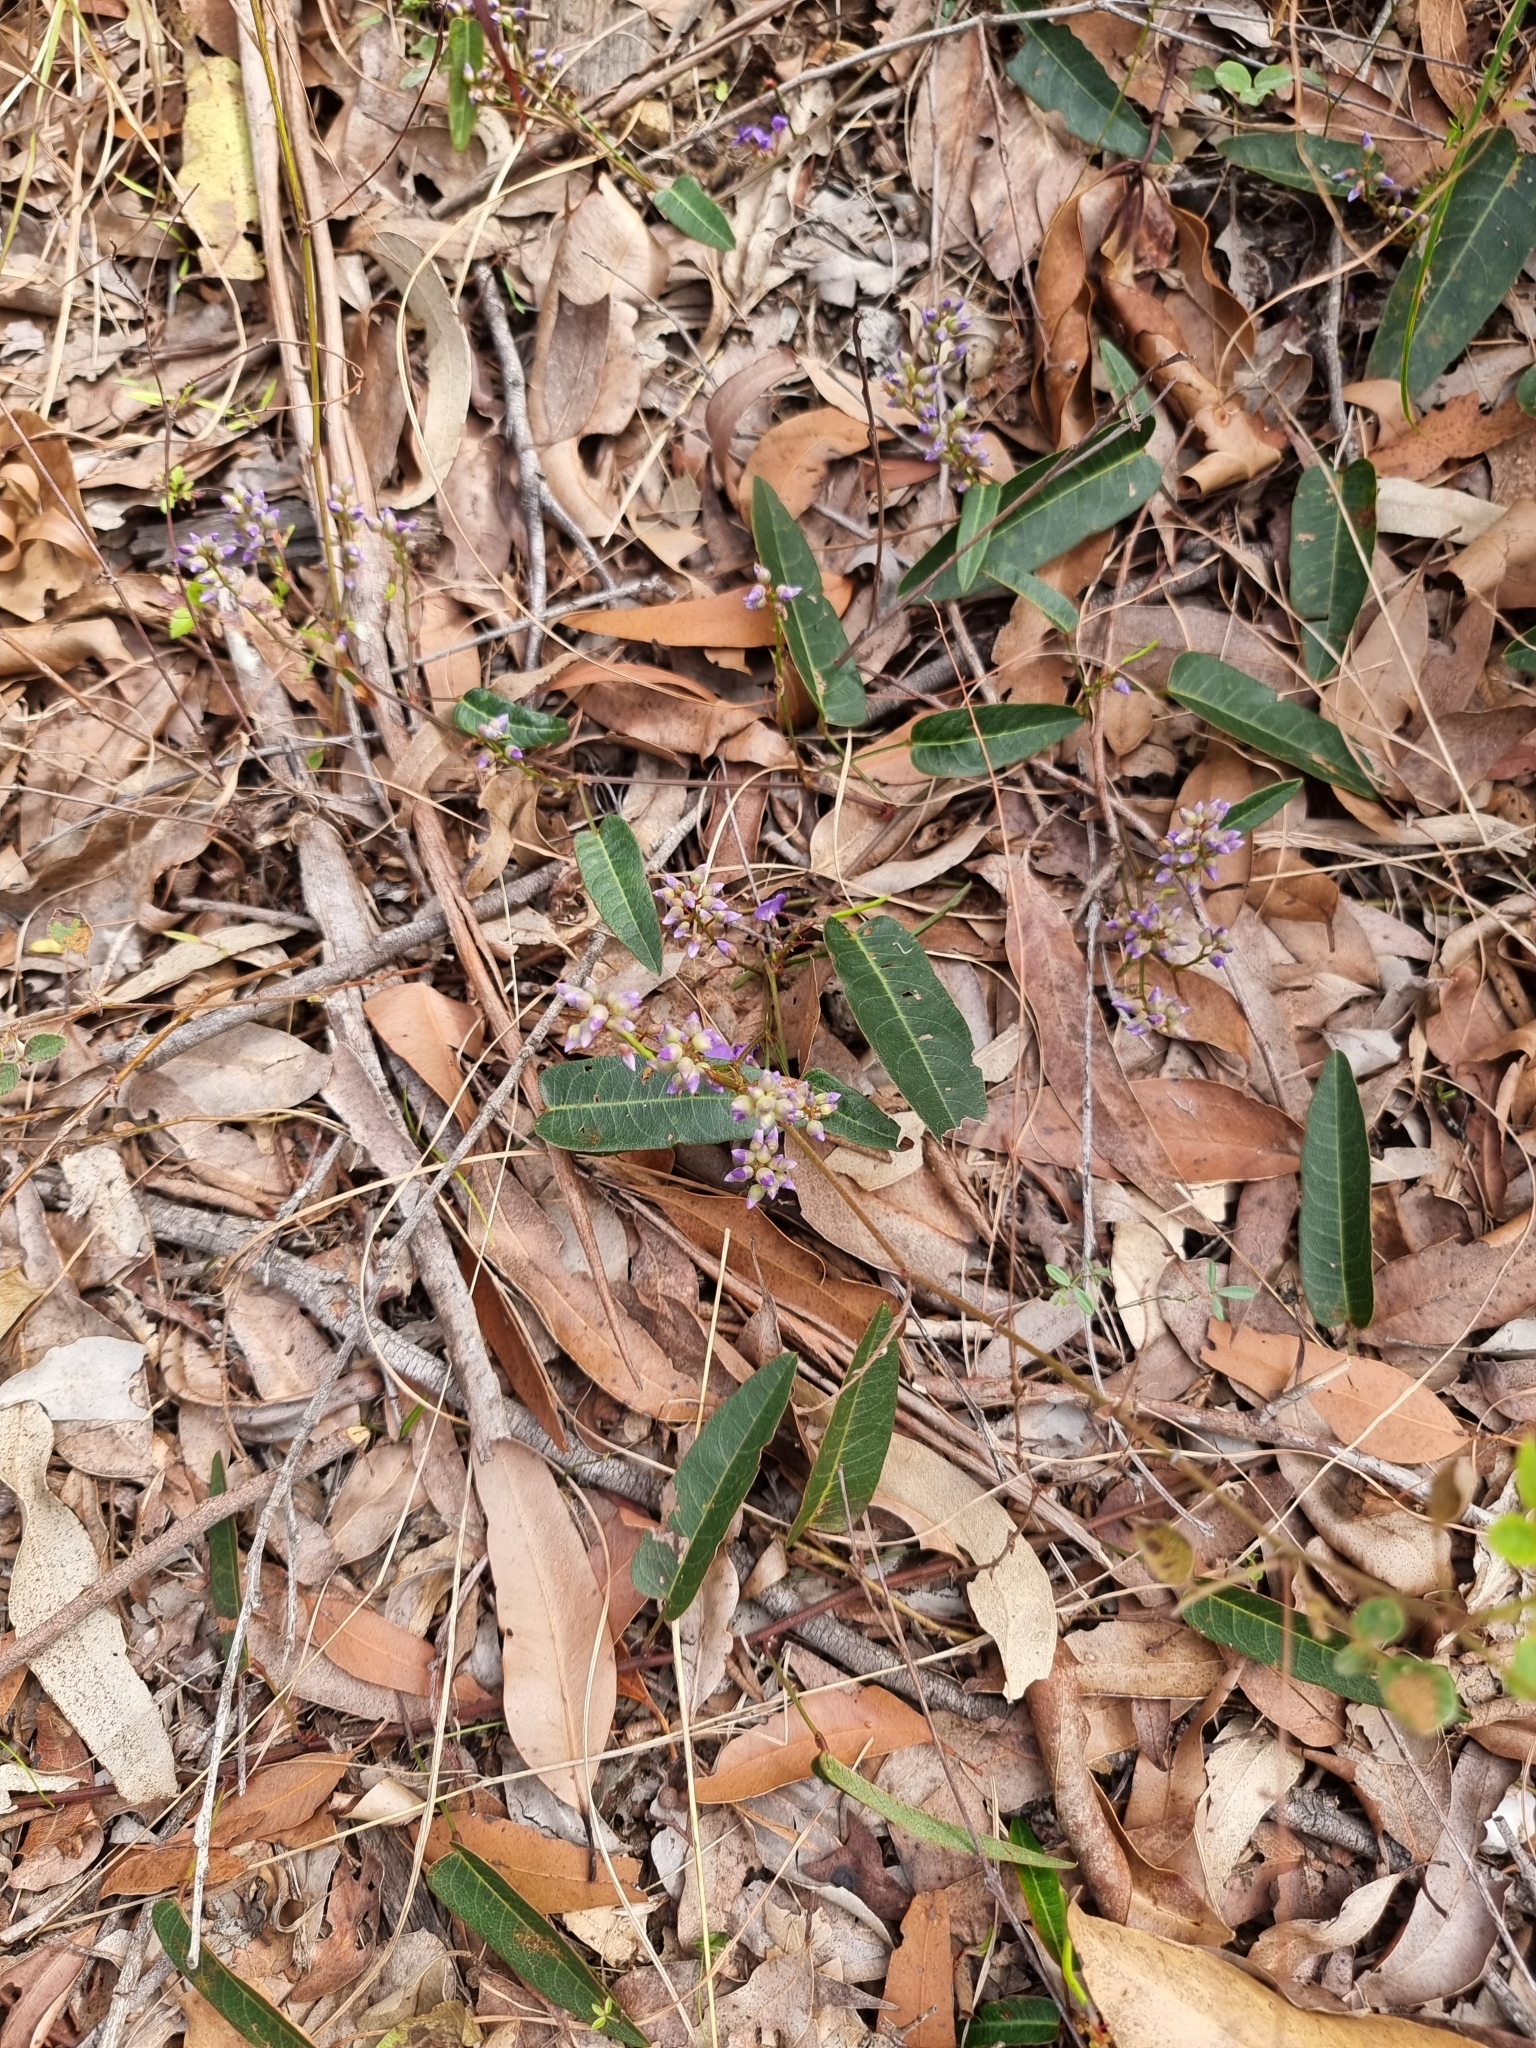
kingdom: Plantae
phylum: Tracheophyta
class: Magnoliopsida
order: Fabales
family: Fabaceae
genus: Hardenbergia
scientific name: Hardenbergia violacea
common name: Coral-pea
